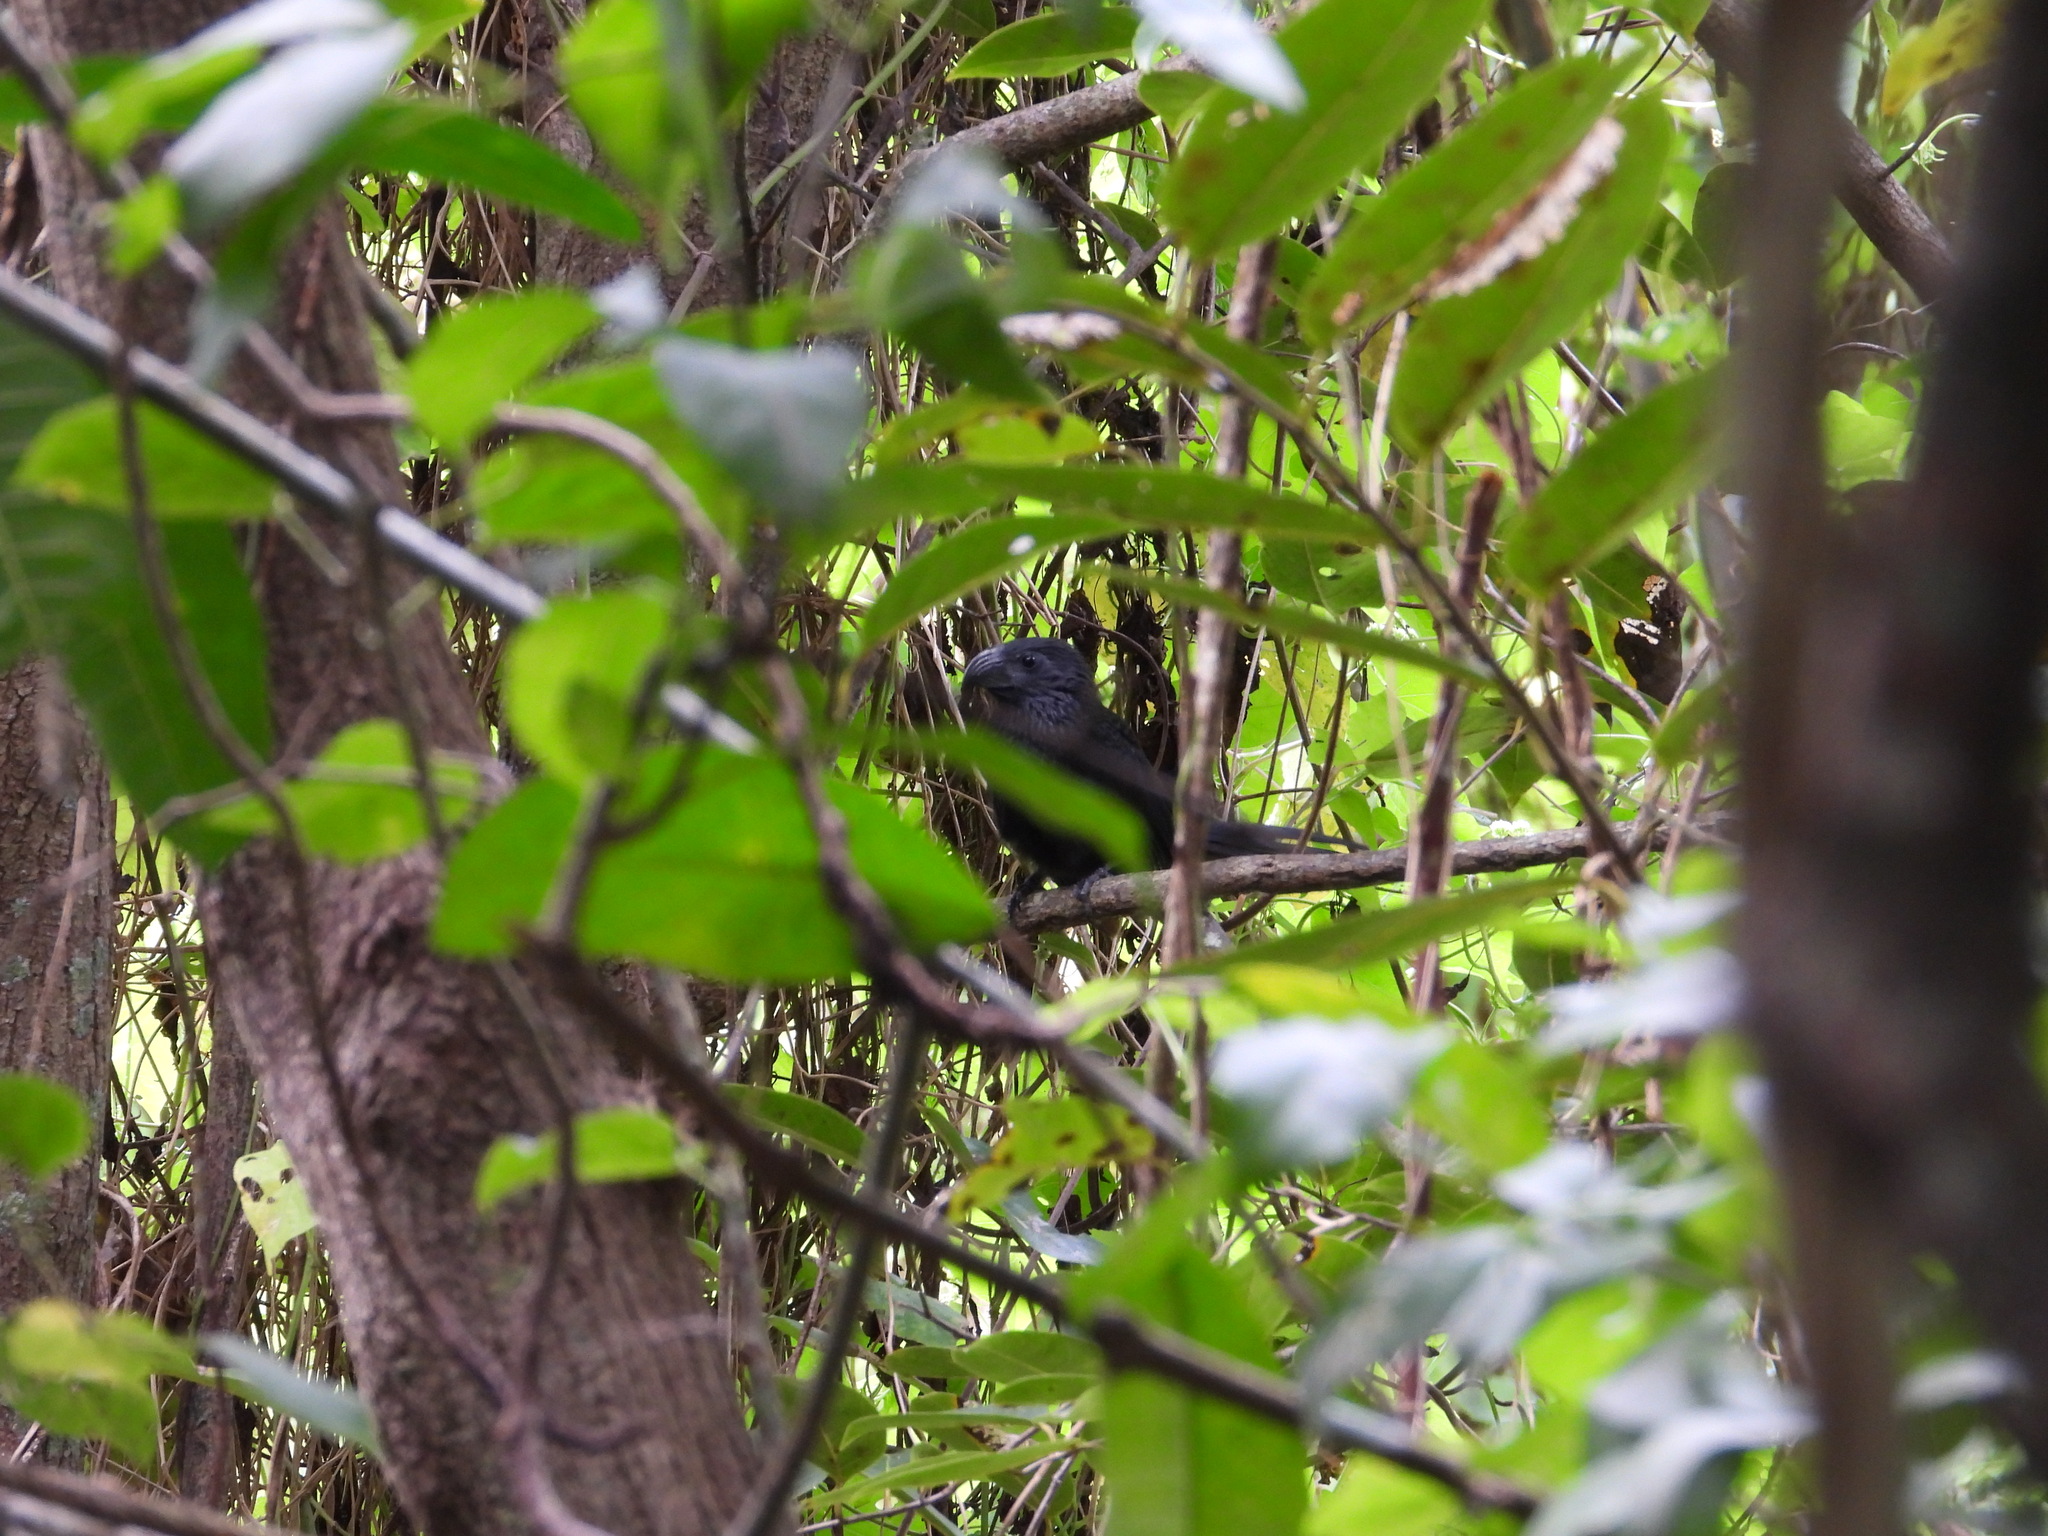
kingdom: Animalia
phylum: Chordata
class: Aves
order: Cuculiformes
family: Cuculidae
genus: Crotophaga
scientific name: Crotophaga sulcirostris
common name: Groove-billed ani
